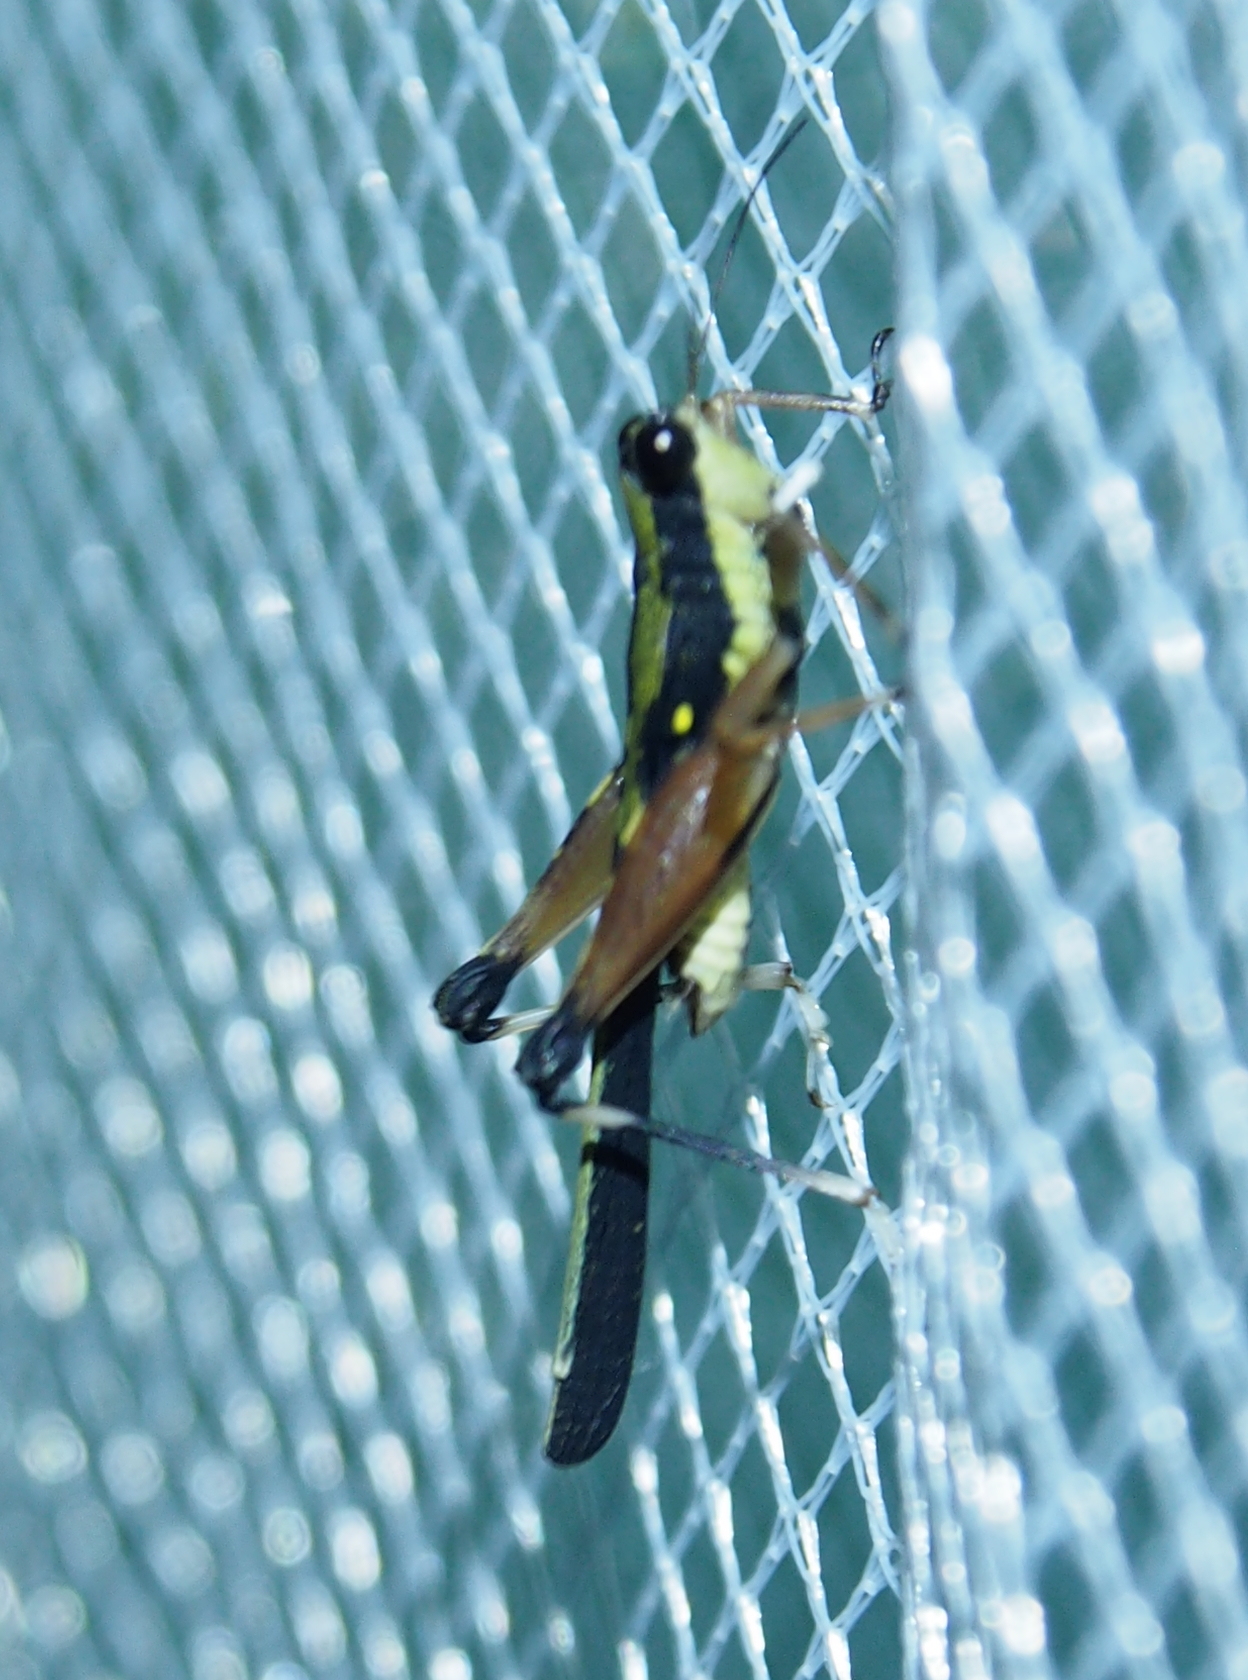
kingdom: Animalia
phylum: Arthropoda
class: Insecta
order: Orthoptera
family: Tetrigidae
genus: Scaria
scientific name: Scaria fasciata
